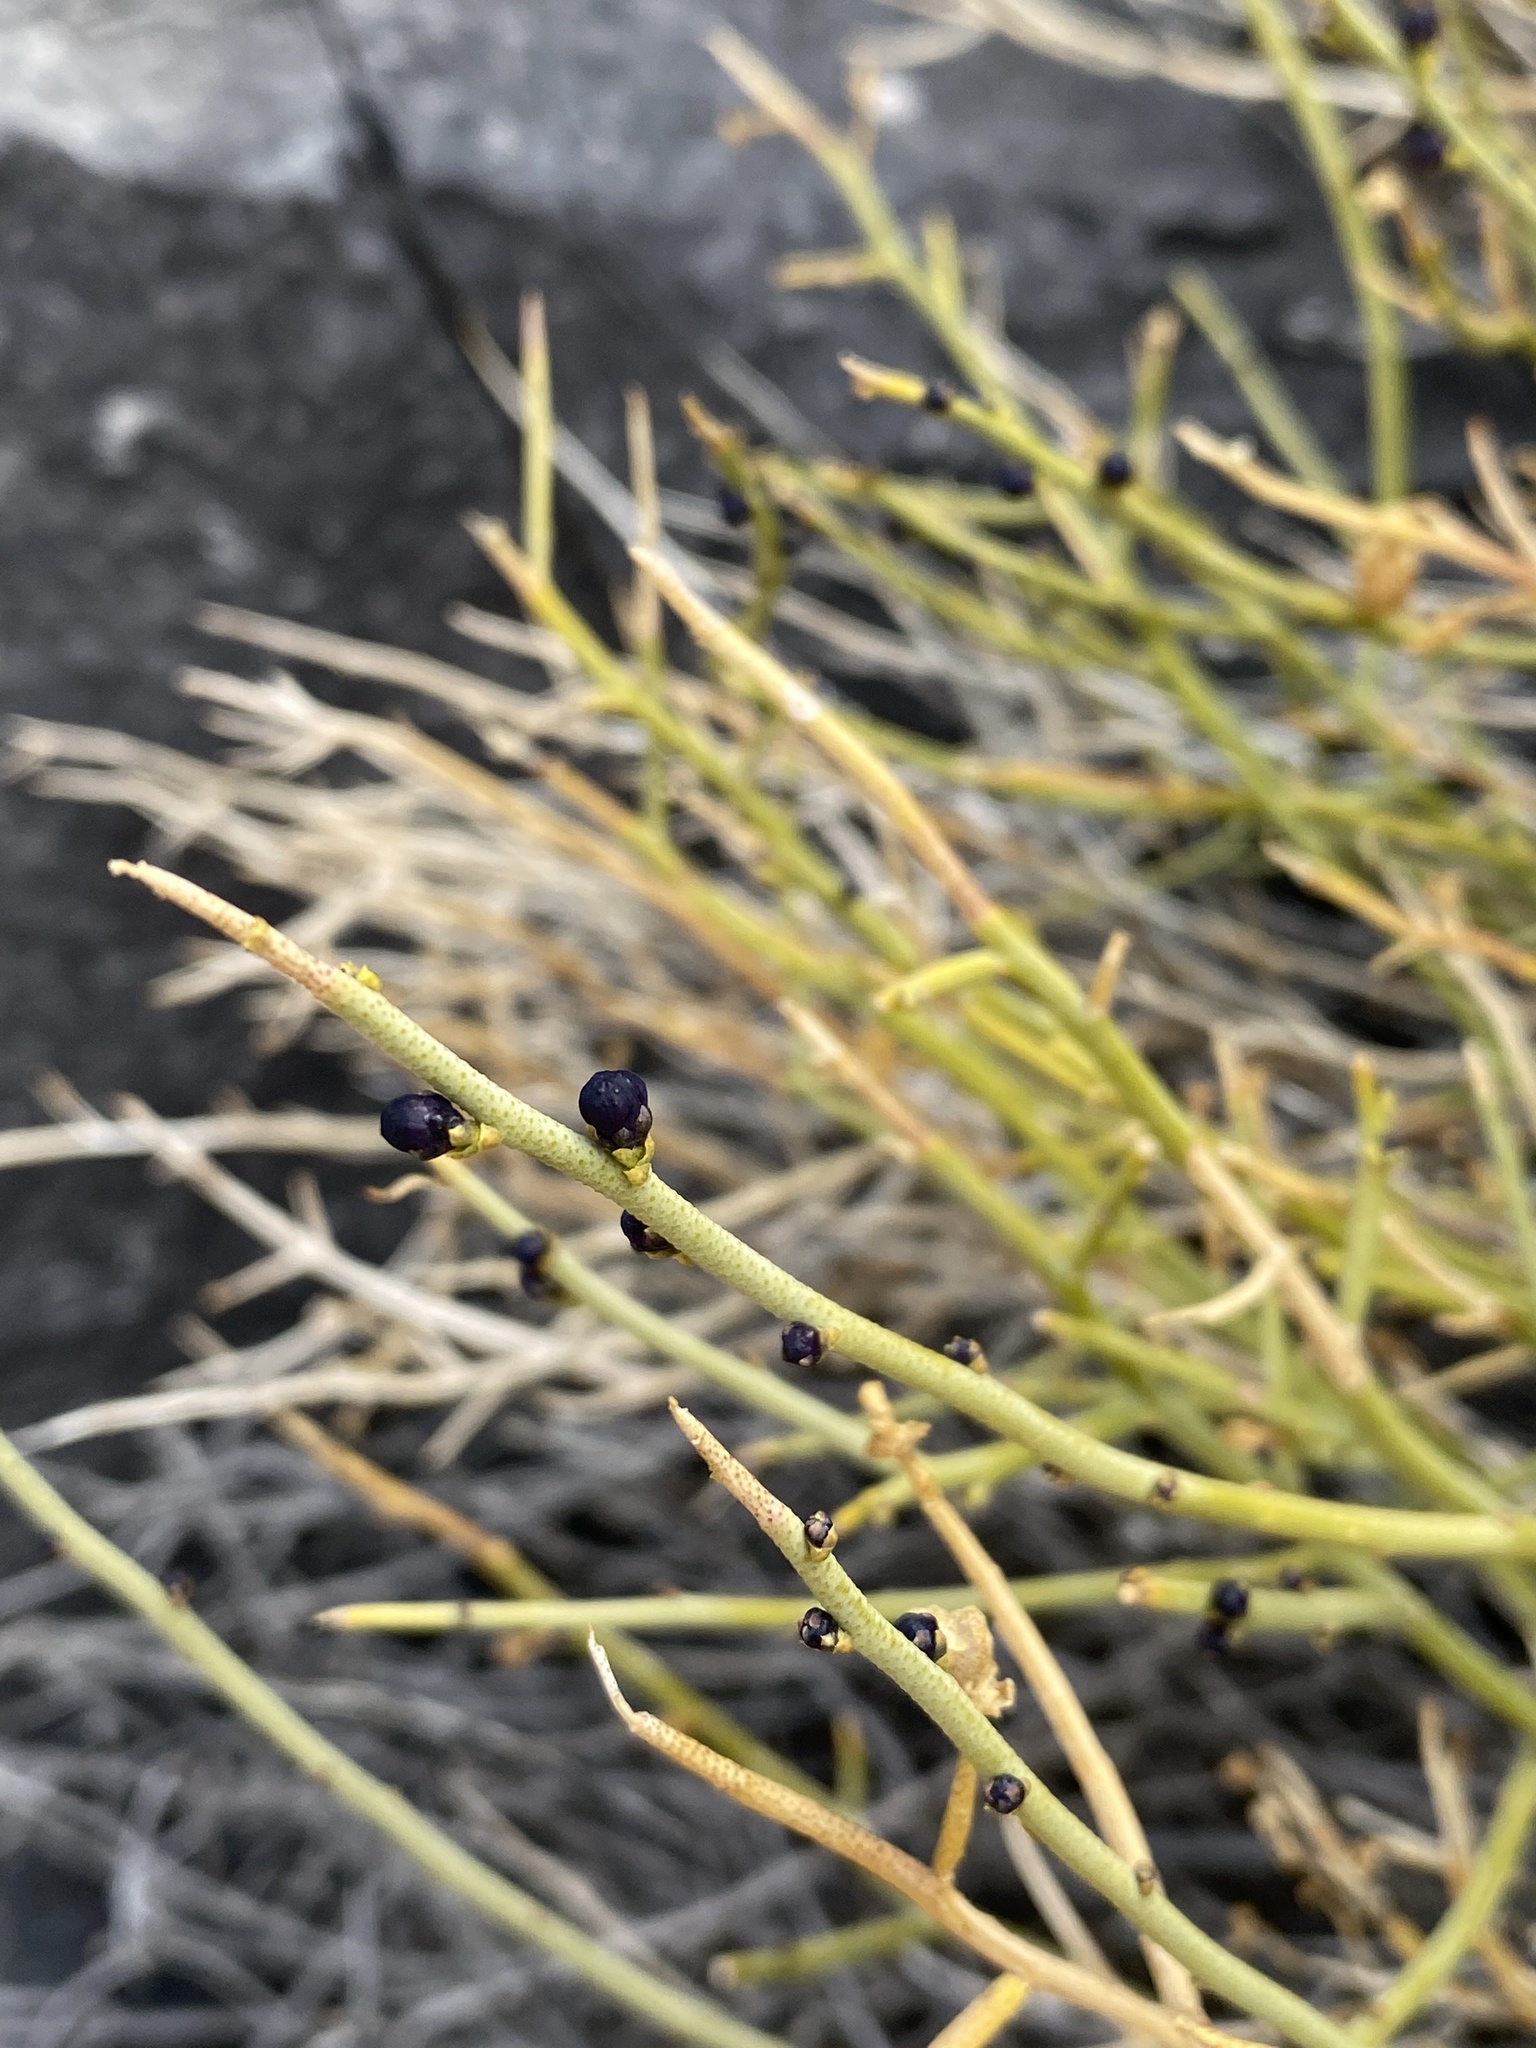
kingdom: Plantae
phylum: Tracheophyta
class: Magnoliopsida
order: Sapindales
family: Rutaceae
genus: Thamnosma
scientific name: Thamnosma montana
